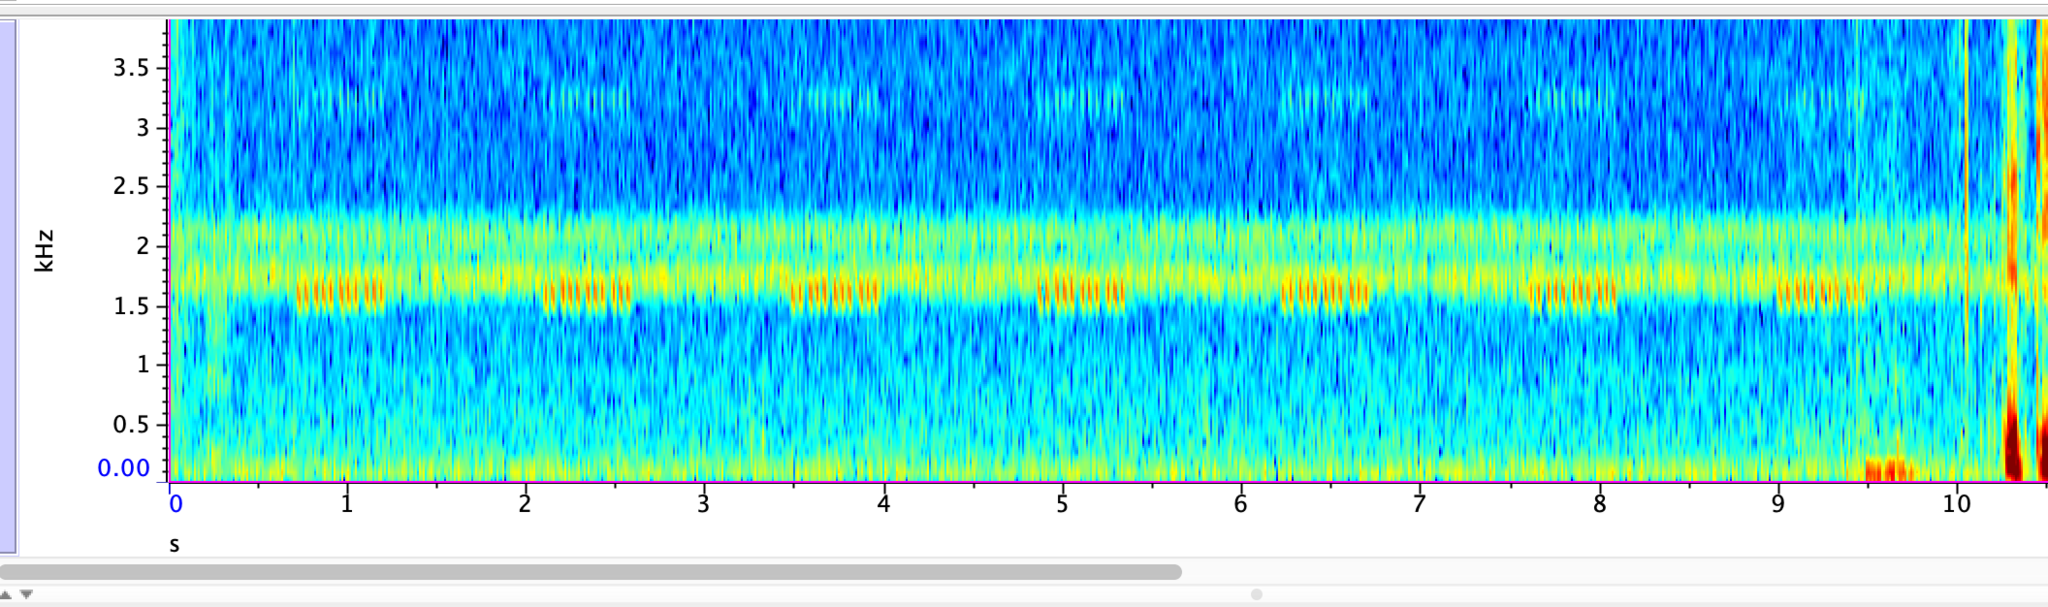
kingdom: Animalia
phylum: Arthropoda
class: Insecta
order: Orthoptera
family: Gryllidae
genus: Oecanthus
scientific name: Oecanthus rileyi
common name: Riley's tree cricket
